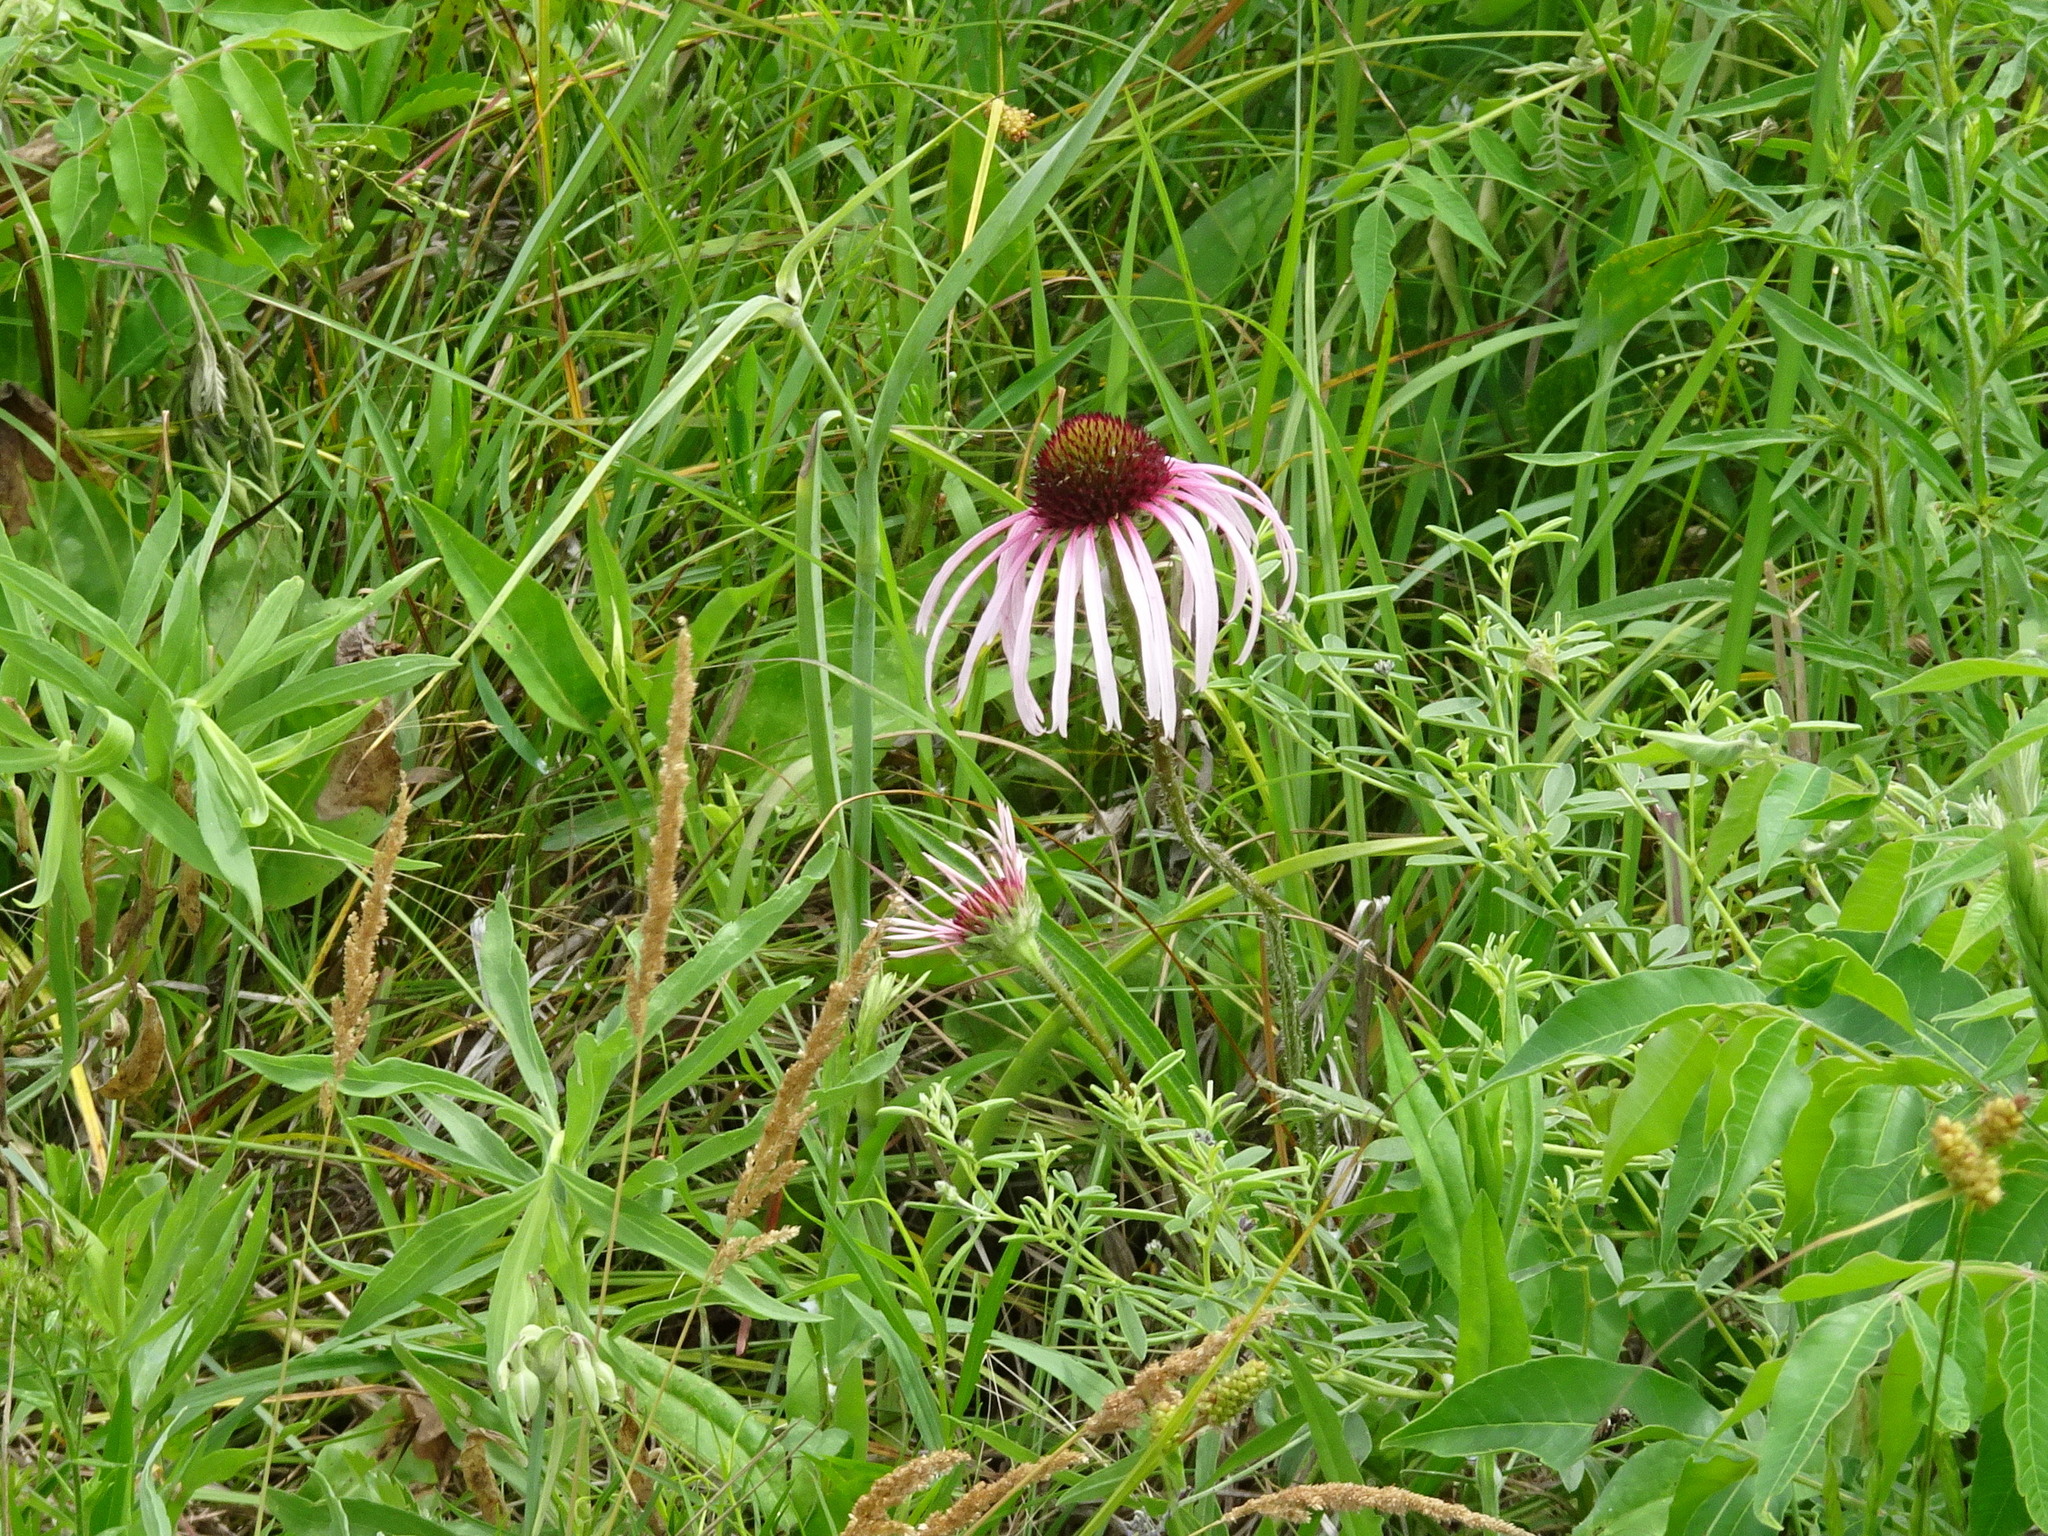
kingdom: Plantae
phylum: Tracheophyta
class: Magnoliopsida
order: Asterales
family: Asteraceae
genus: Echinacea
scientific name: Echinacea pallida
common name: Pale echinacea
